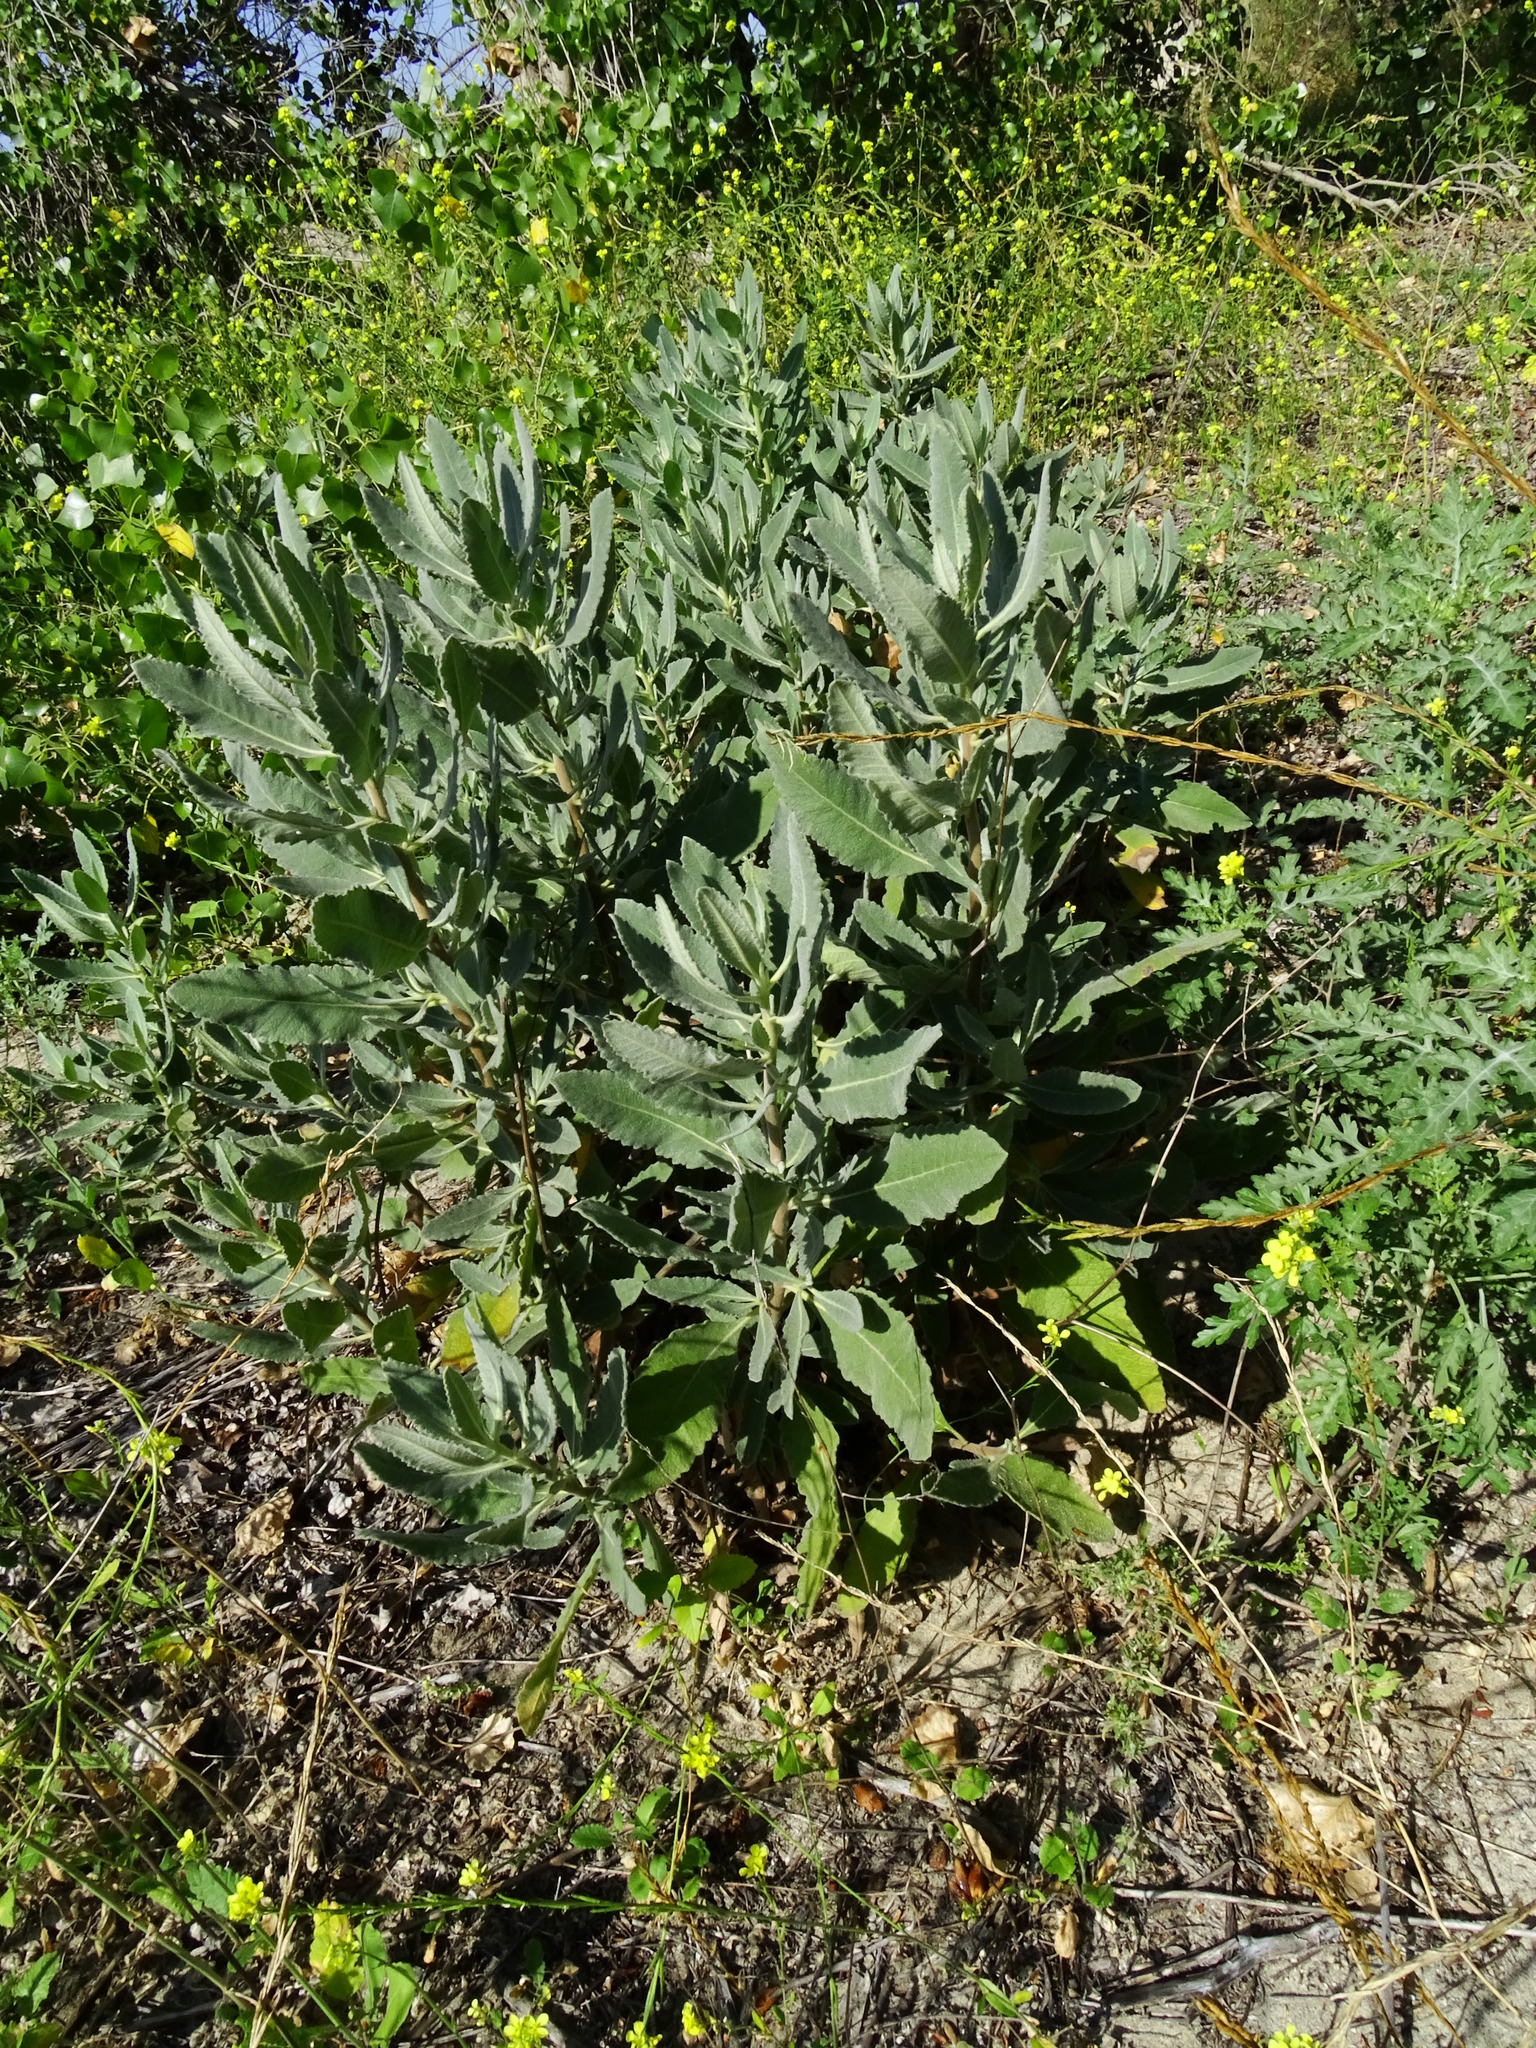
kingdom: Plantae
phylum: Tracheophyta
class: Magnoliopsida
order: Boraginales
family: Namaceae
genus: Eriodictyon
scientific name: Eriodictyon crassifolium
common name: Thick-leaf yerba-santa
